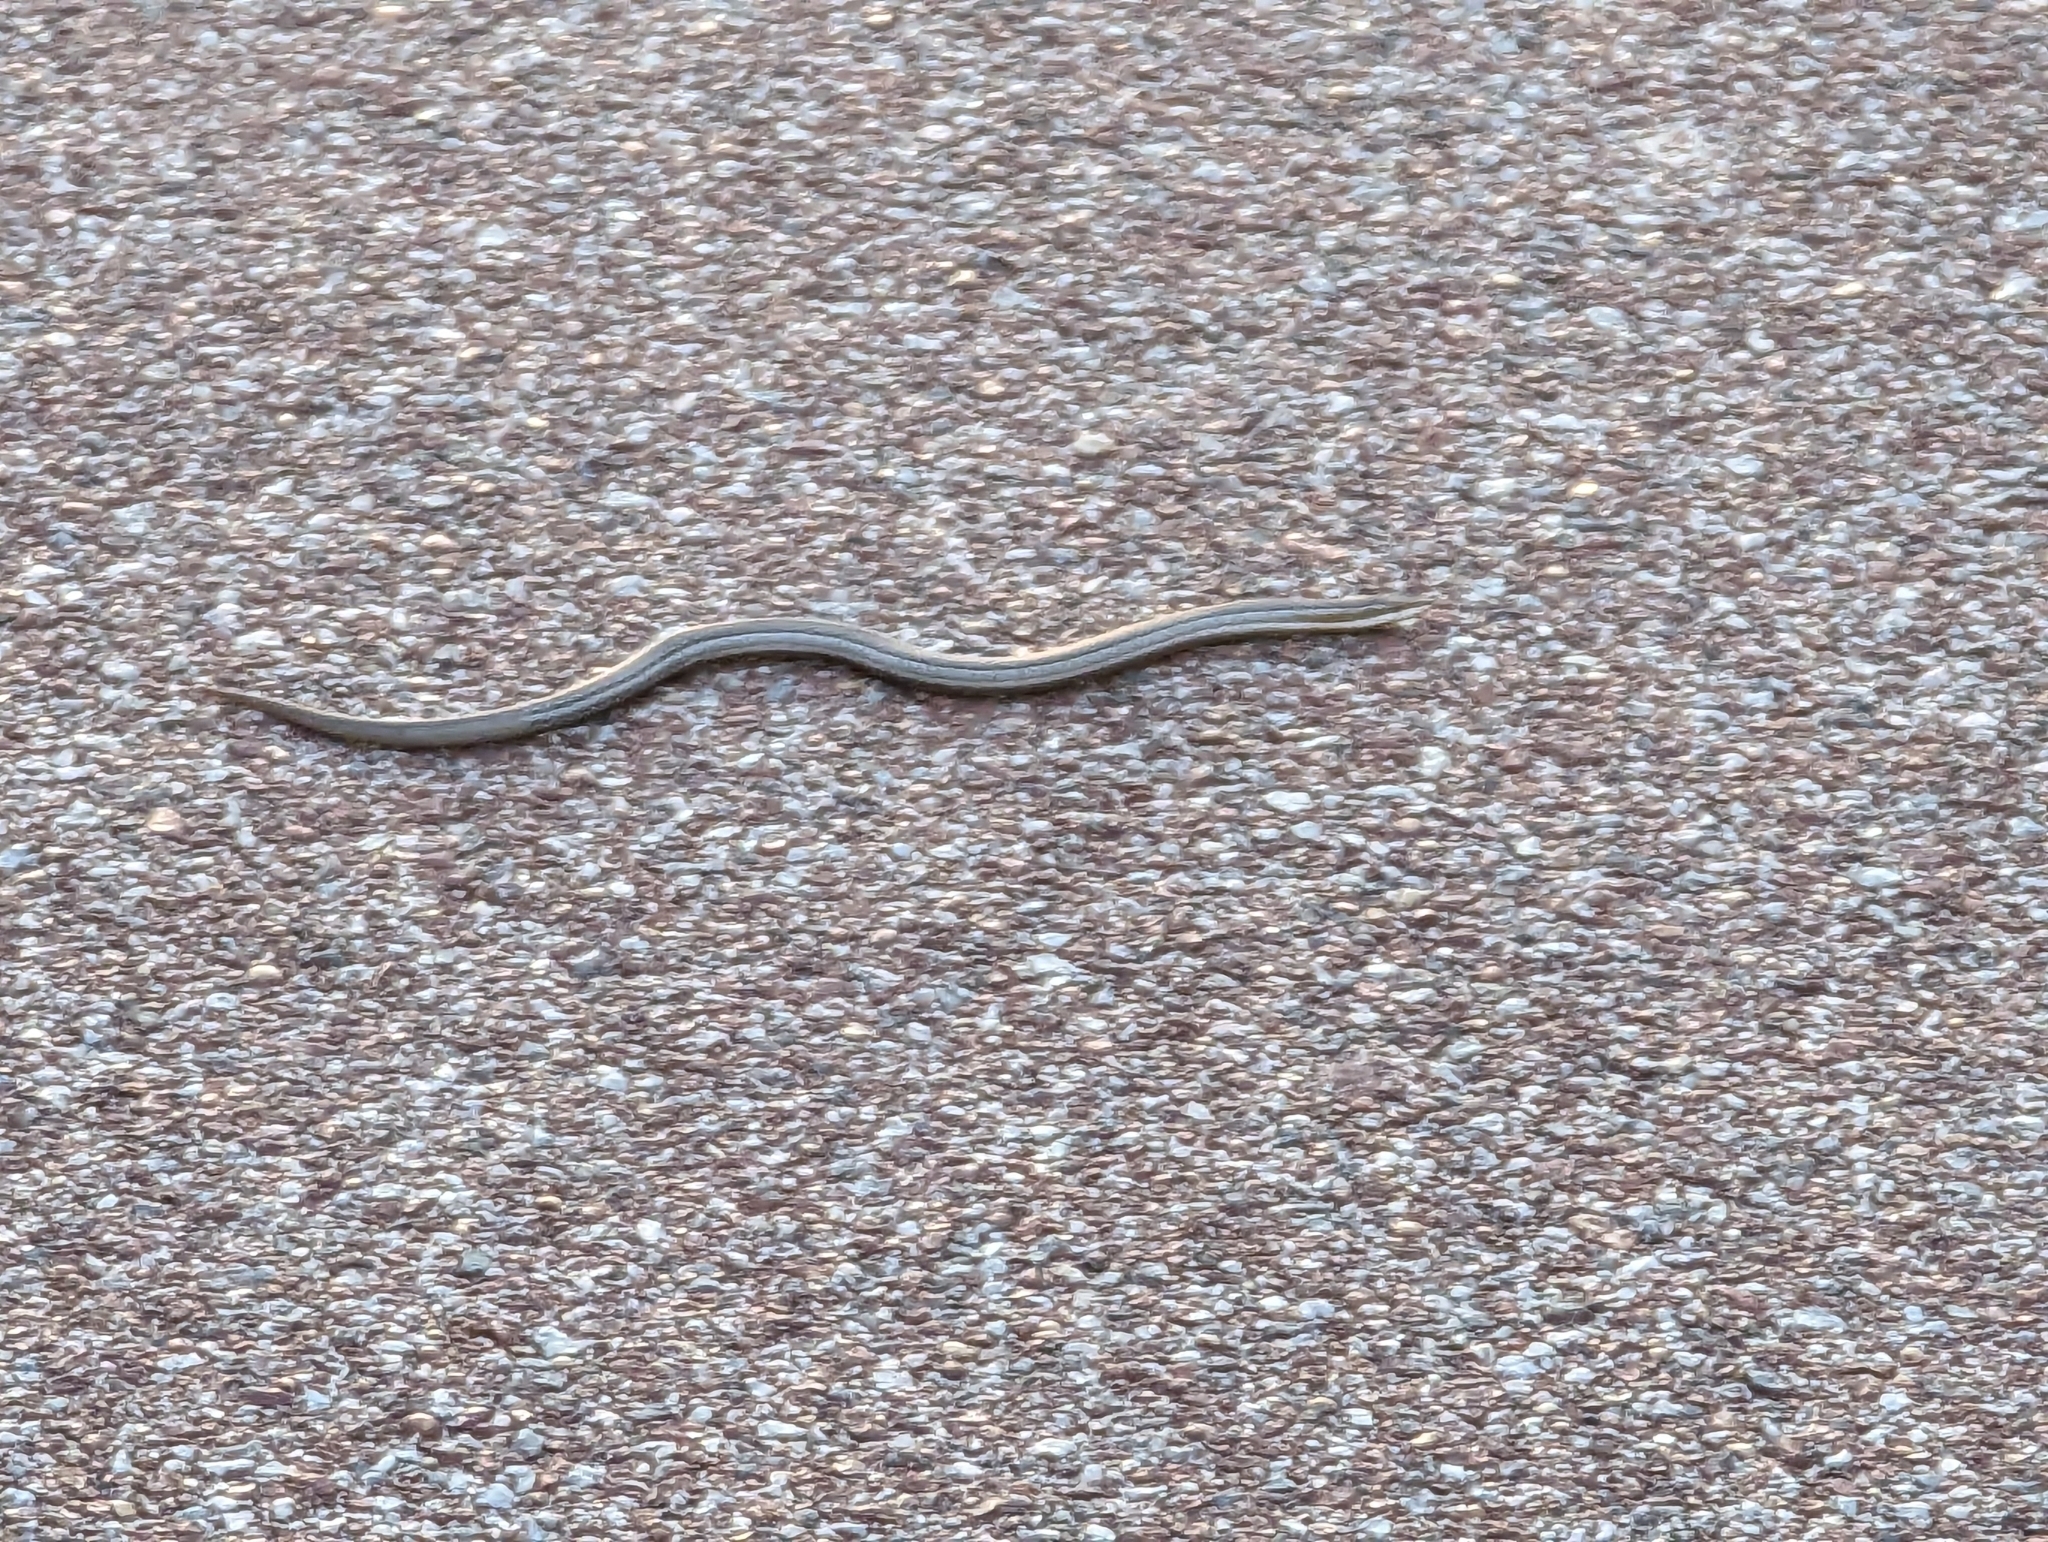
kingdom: Animalia
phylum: Chordata
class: Squamata
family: Pygopodidae
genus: Lialis
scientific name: Lialis burtonis
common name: Burton's legless lizard
